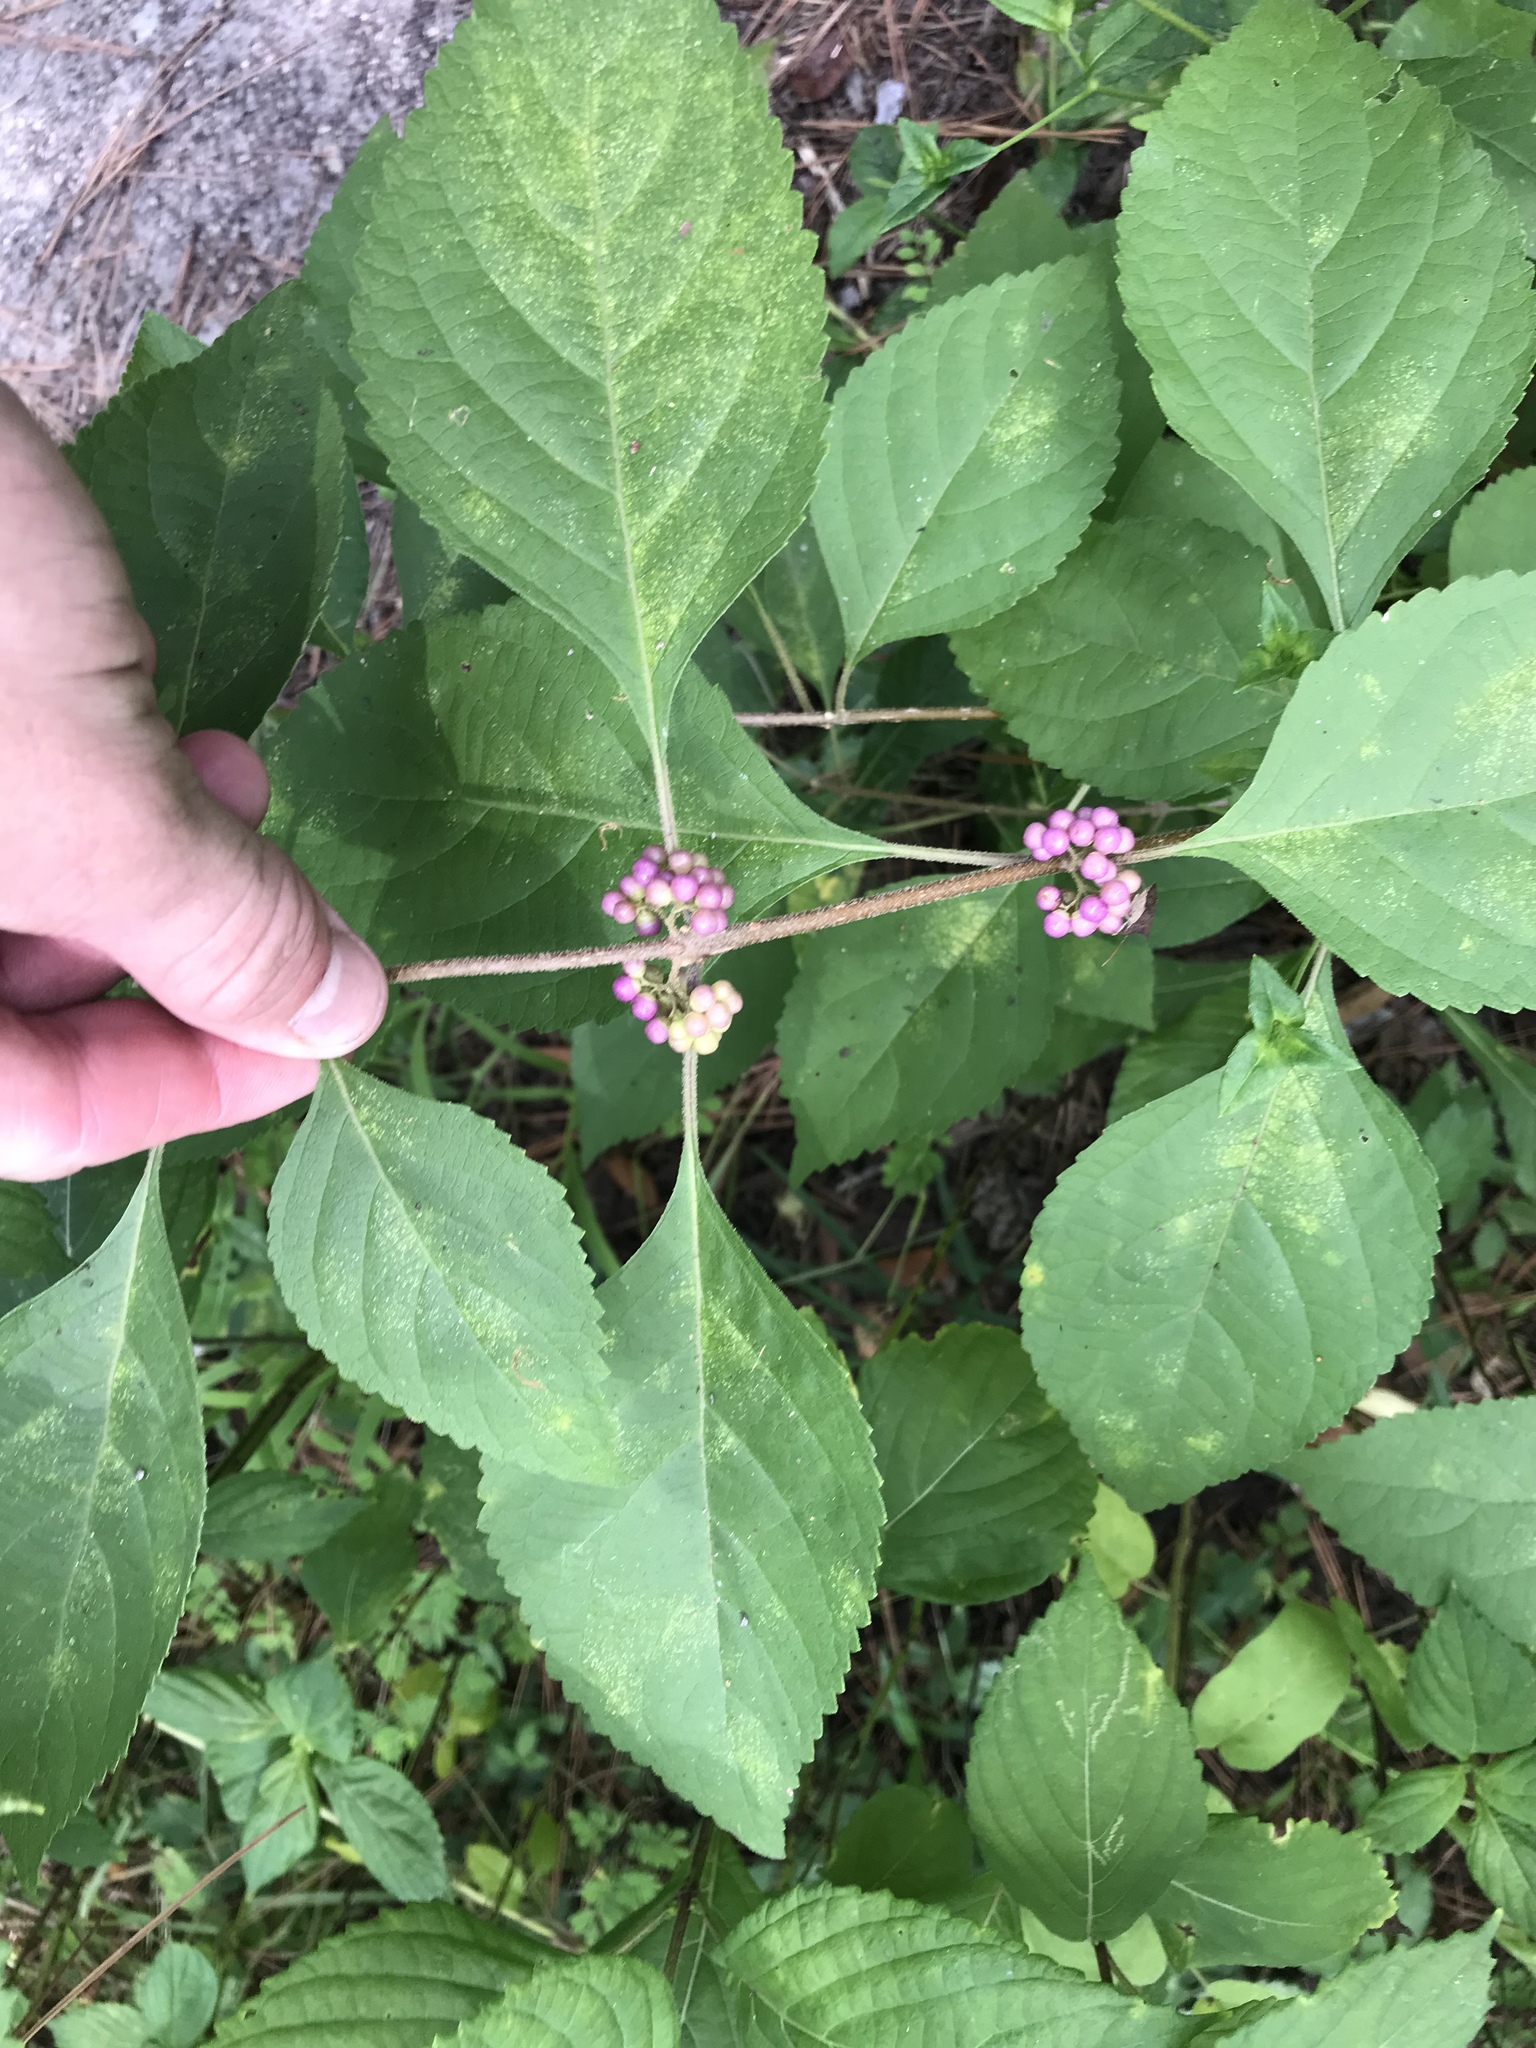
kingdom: Plantae
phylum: Tracheophyta
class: Magnoliopsida
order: Lamiales
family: Lamiaceae
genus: Callicarpa
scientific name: Callicarpa americana
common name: American beautyberry
